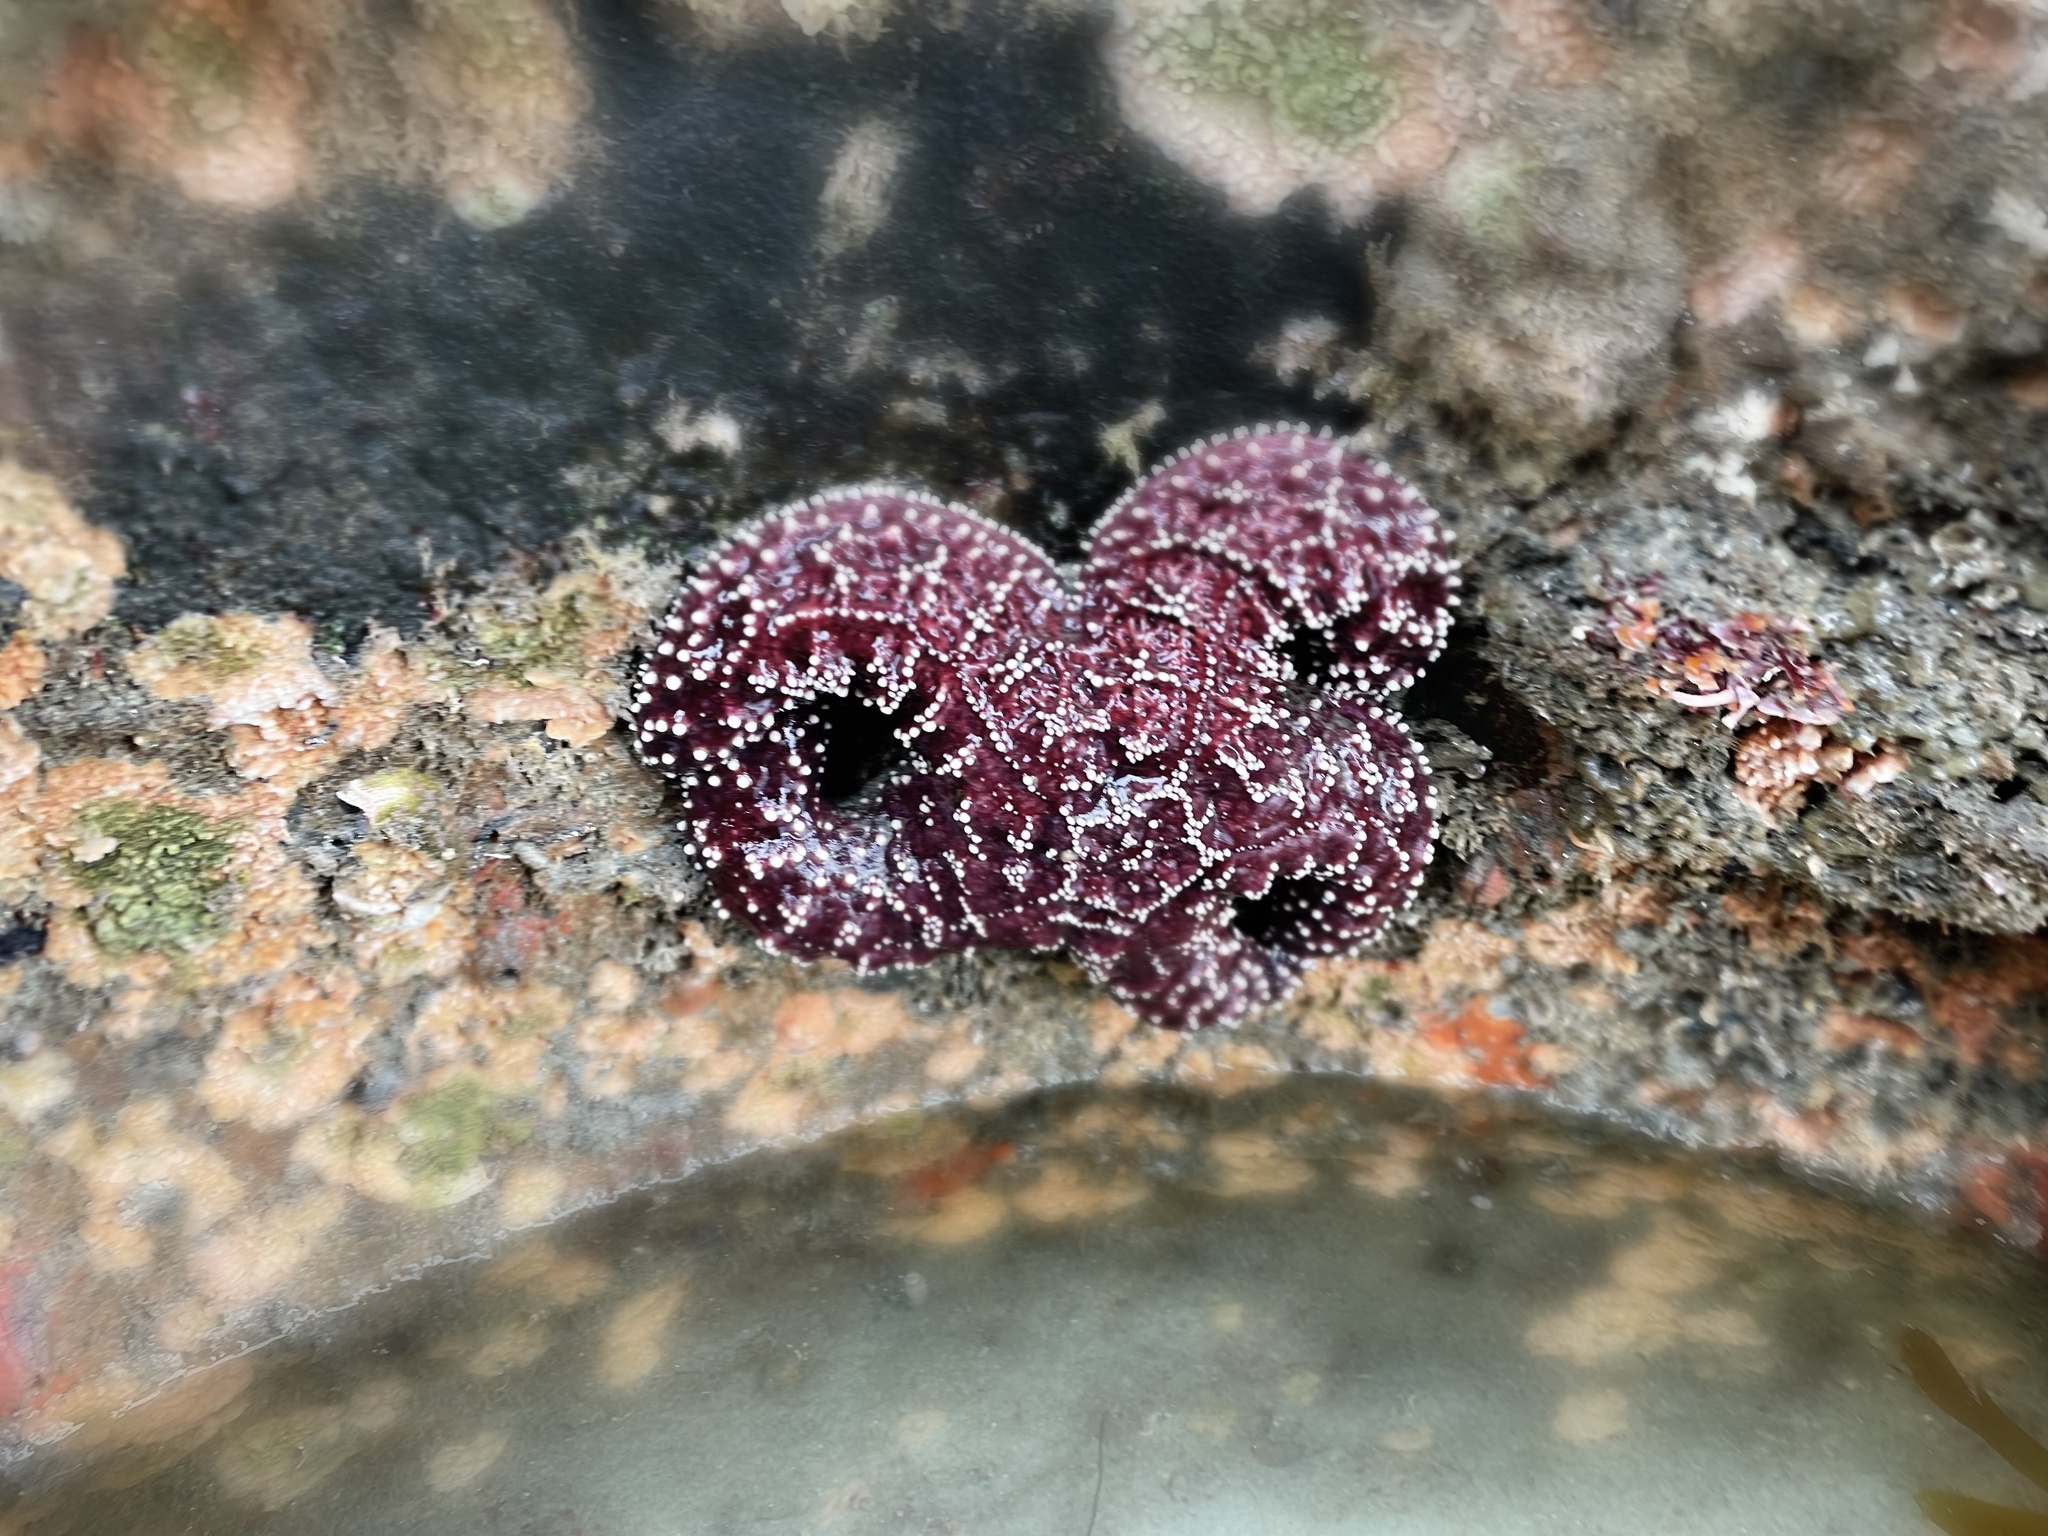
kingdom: Animalia
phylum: Echinodermata
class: Asteroidea
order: Forcipulatida
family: Asteriidae
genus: Pisaster
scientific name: Pisaster ochraceus
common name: Ochre stars
